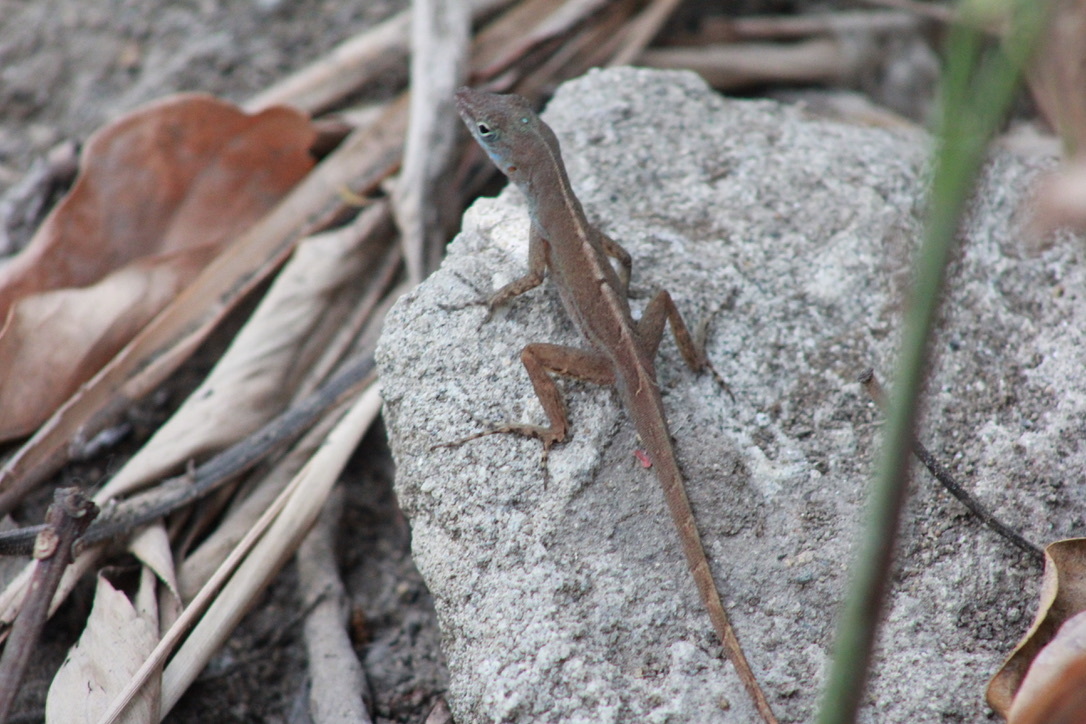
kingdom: Animalia
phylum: Chordata
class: Squamata
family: Dactyloidae
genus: Anolis
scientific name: Anolis wattsii
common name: Antigua bank bush anole
